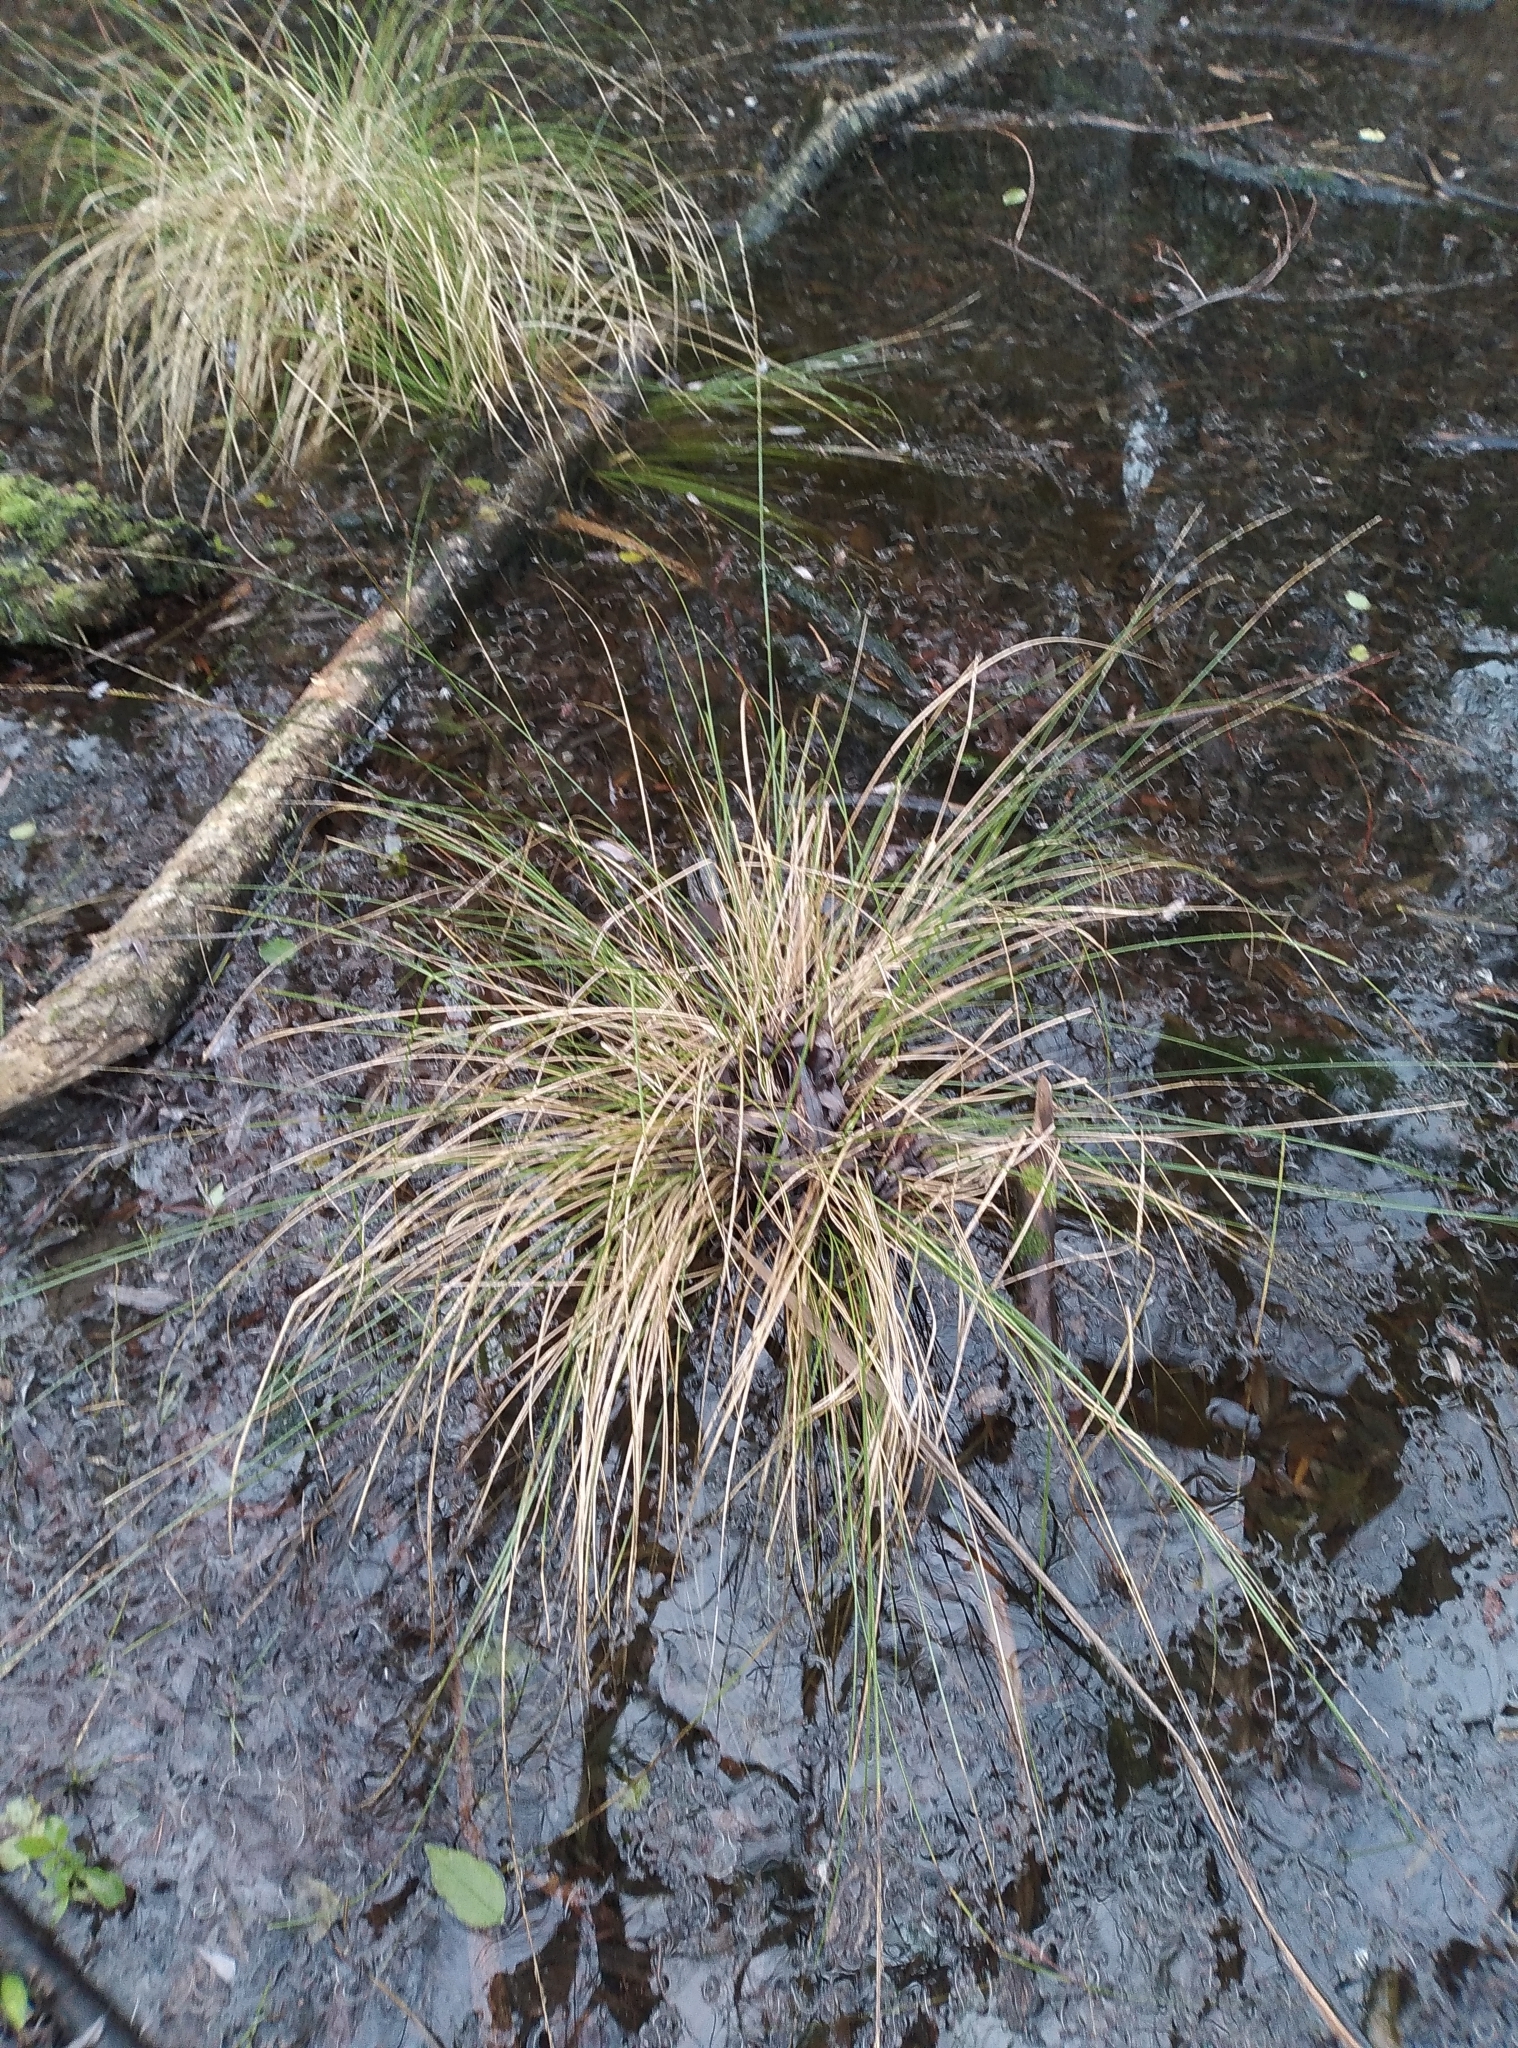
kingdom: Plantae
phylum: Tracheophyta
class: Liliopsida
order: Poales
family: Cyperaceae
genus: Carex
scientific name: Carex virgata
